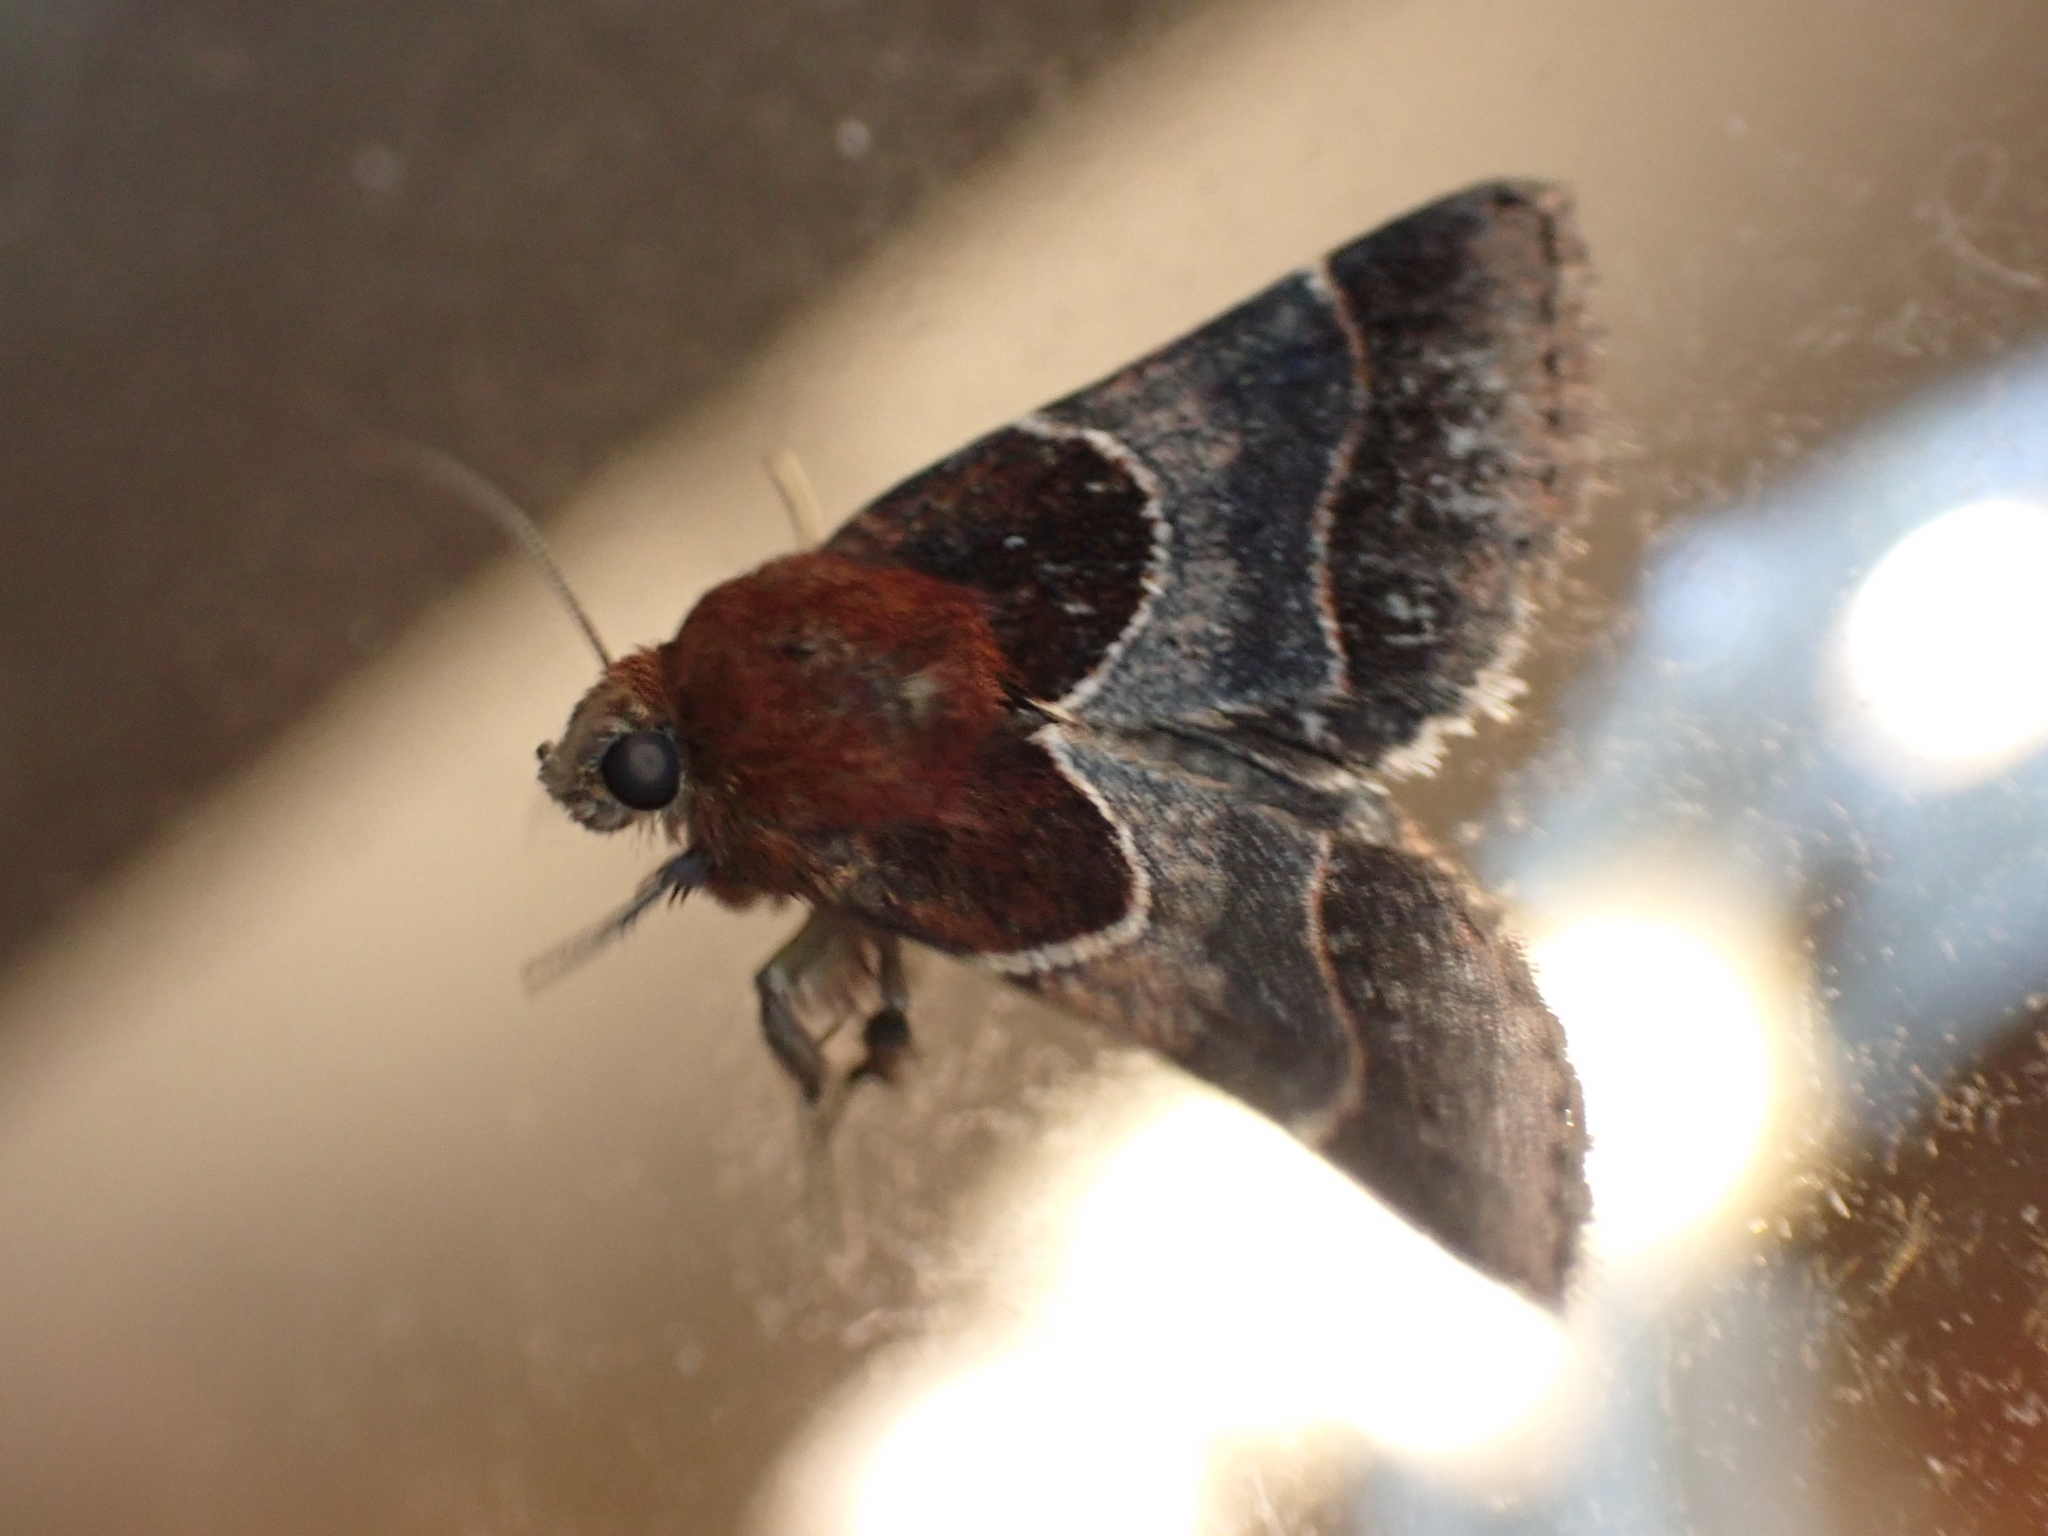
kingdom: Animalia
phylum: Arthropoda
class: Insecta
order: Lepidoptera
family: Noctuidae
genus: Schinia
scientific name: Schinia arcigera
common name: Arcigera flower moth
